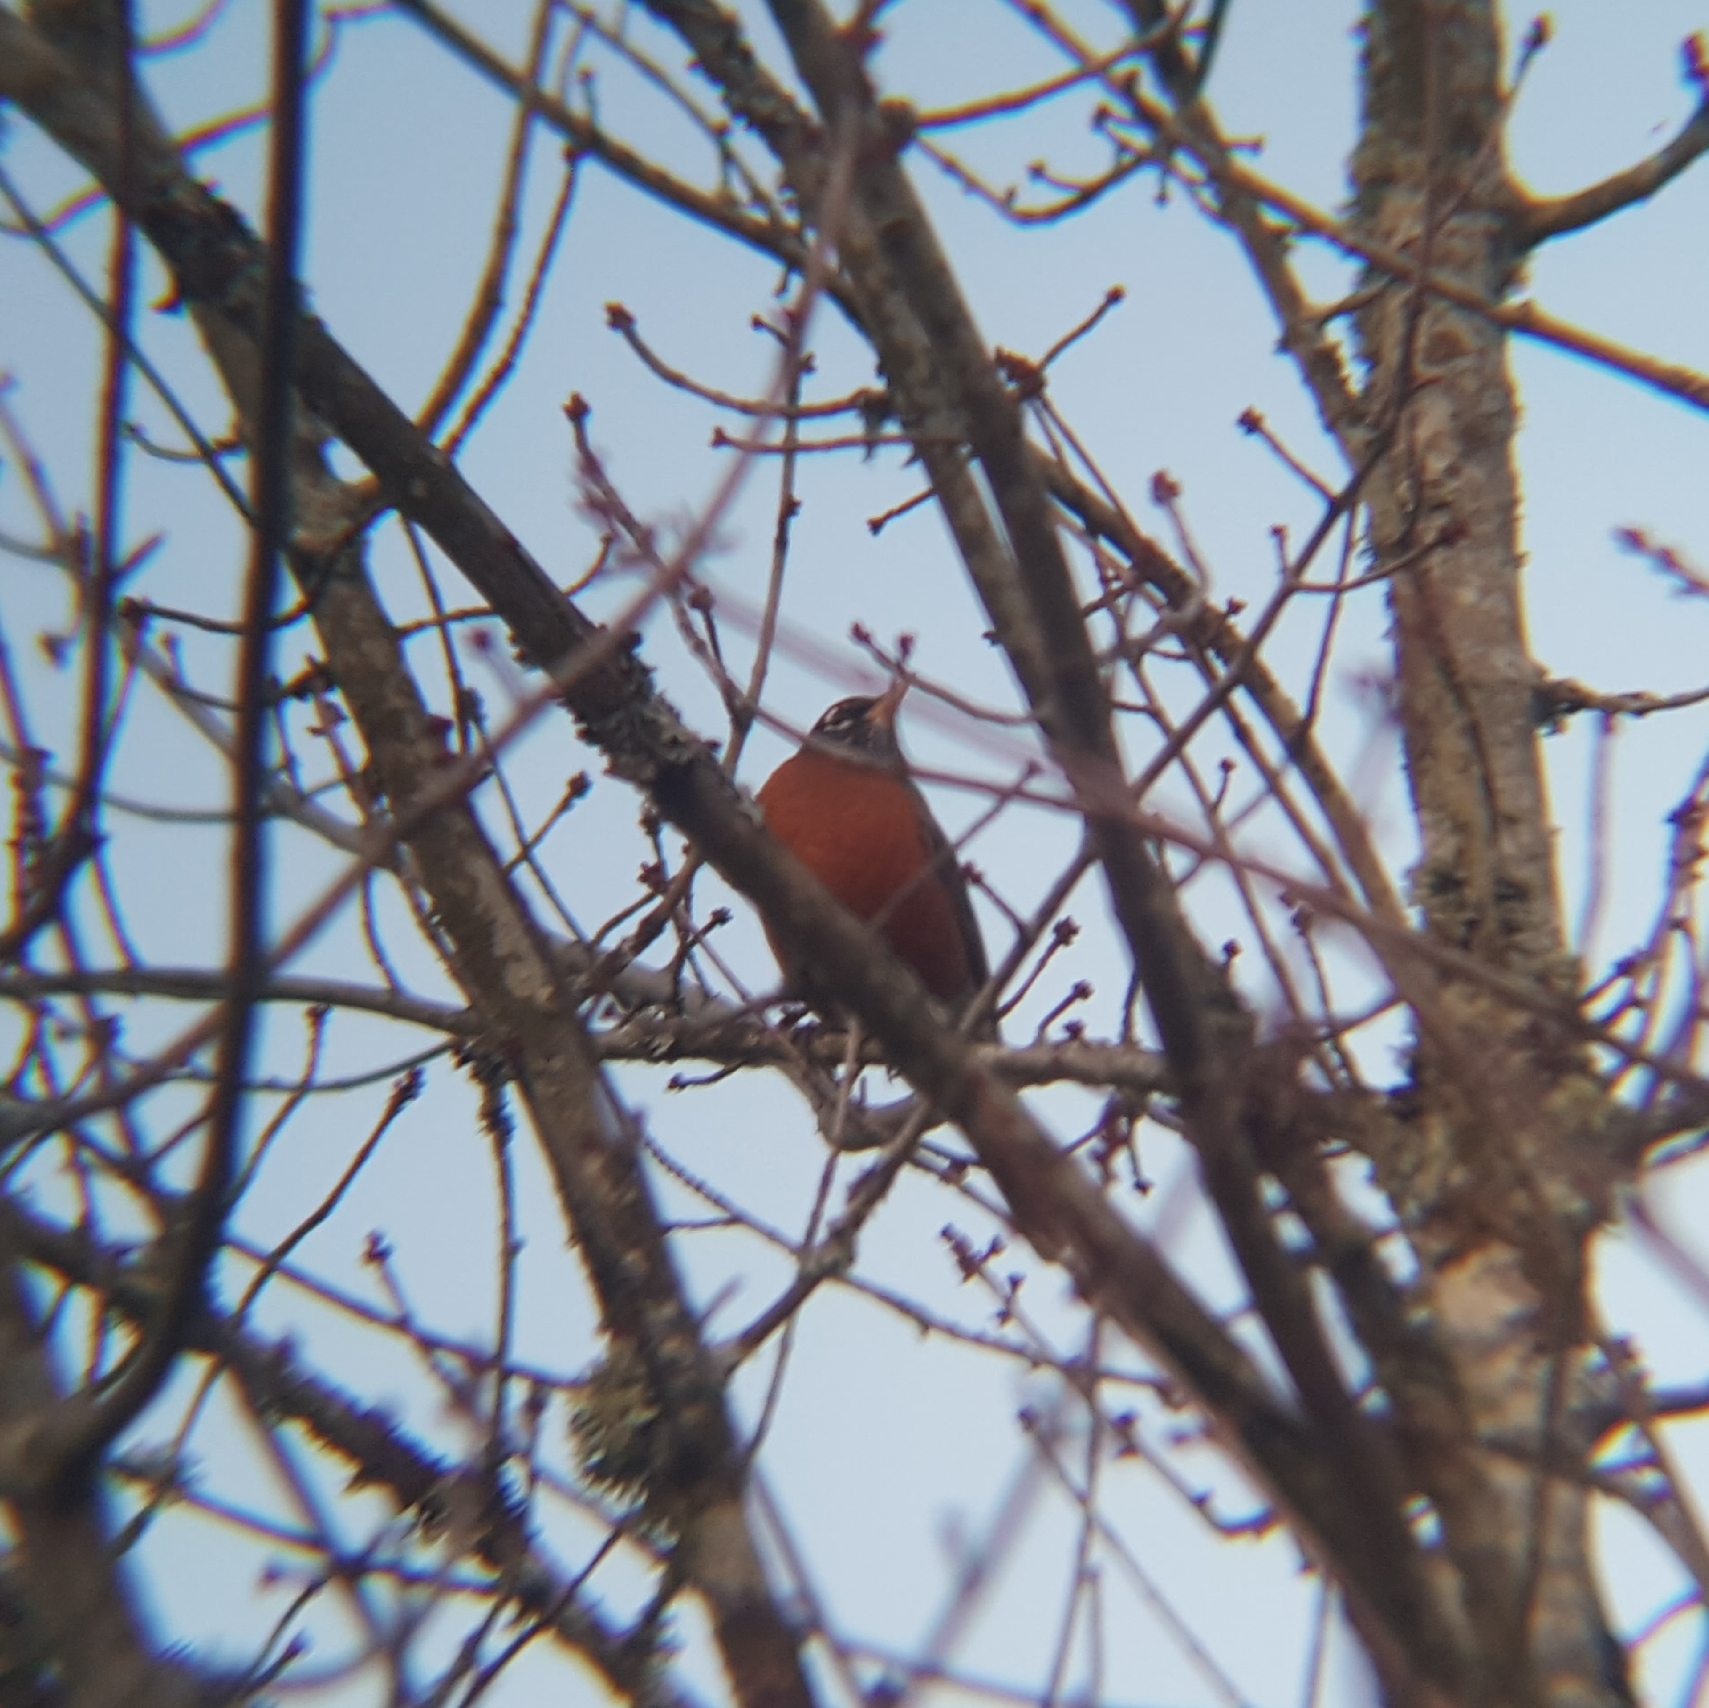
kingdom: Animalia
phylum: Chordata
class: Aves
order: Passeriformes
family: Turdidae
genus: Turdus
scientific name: Turdus migratorius
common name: American robin
